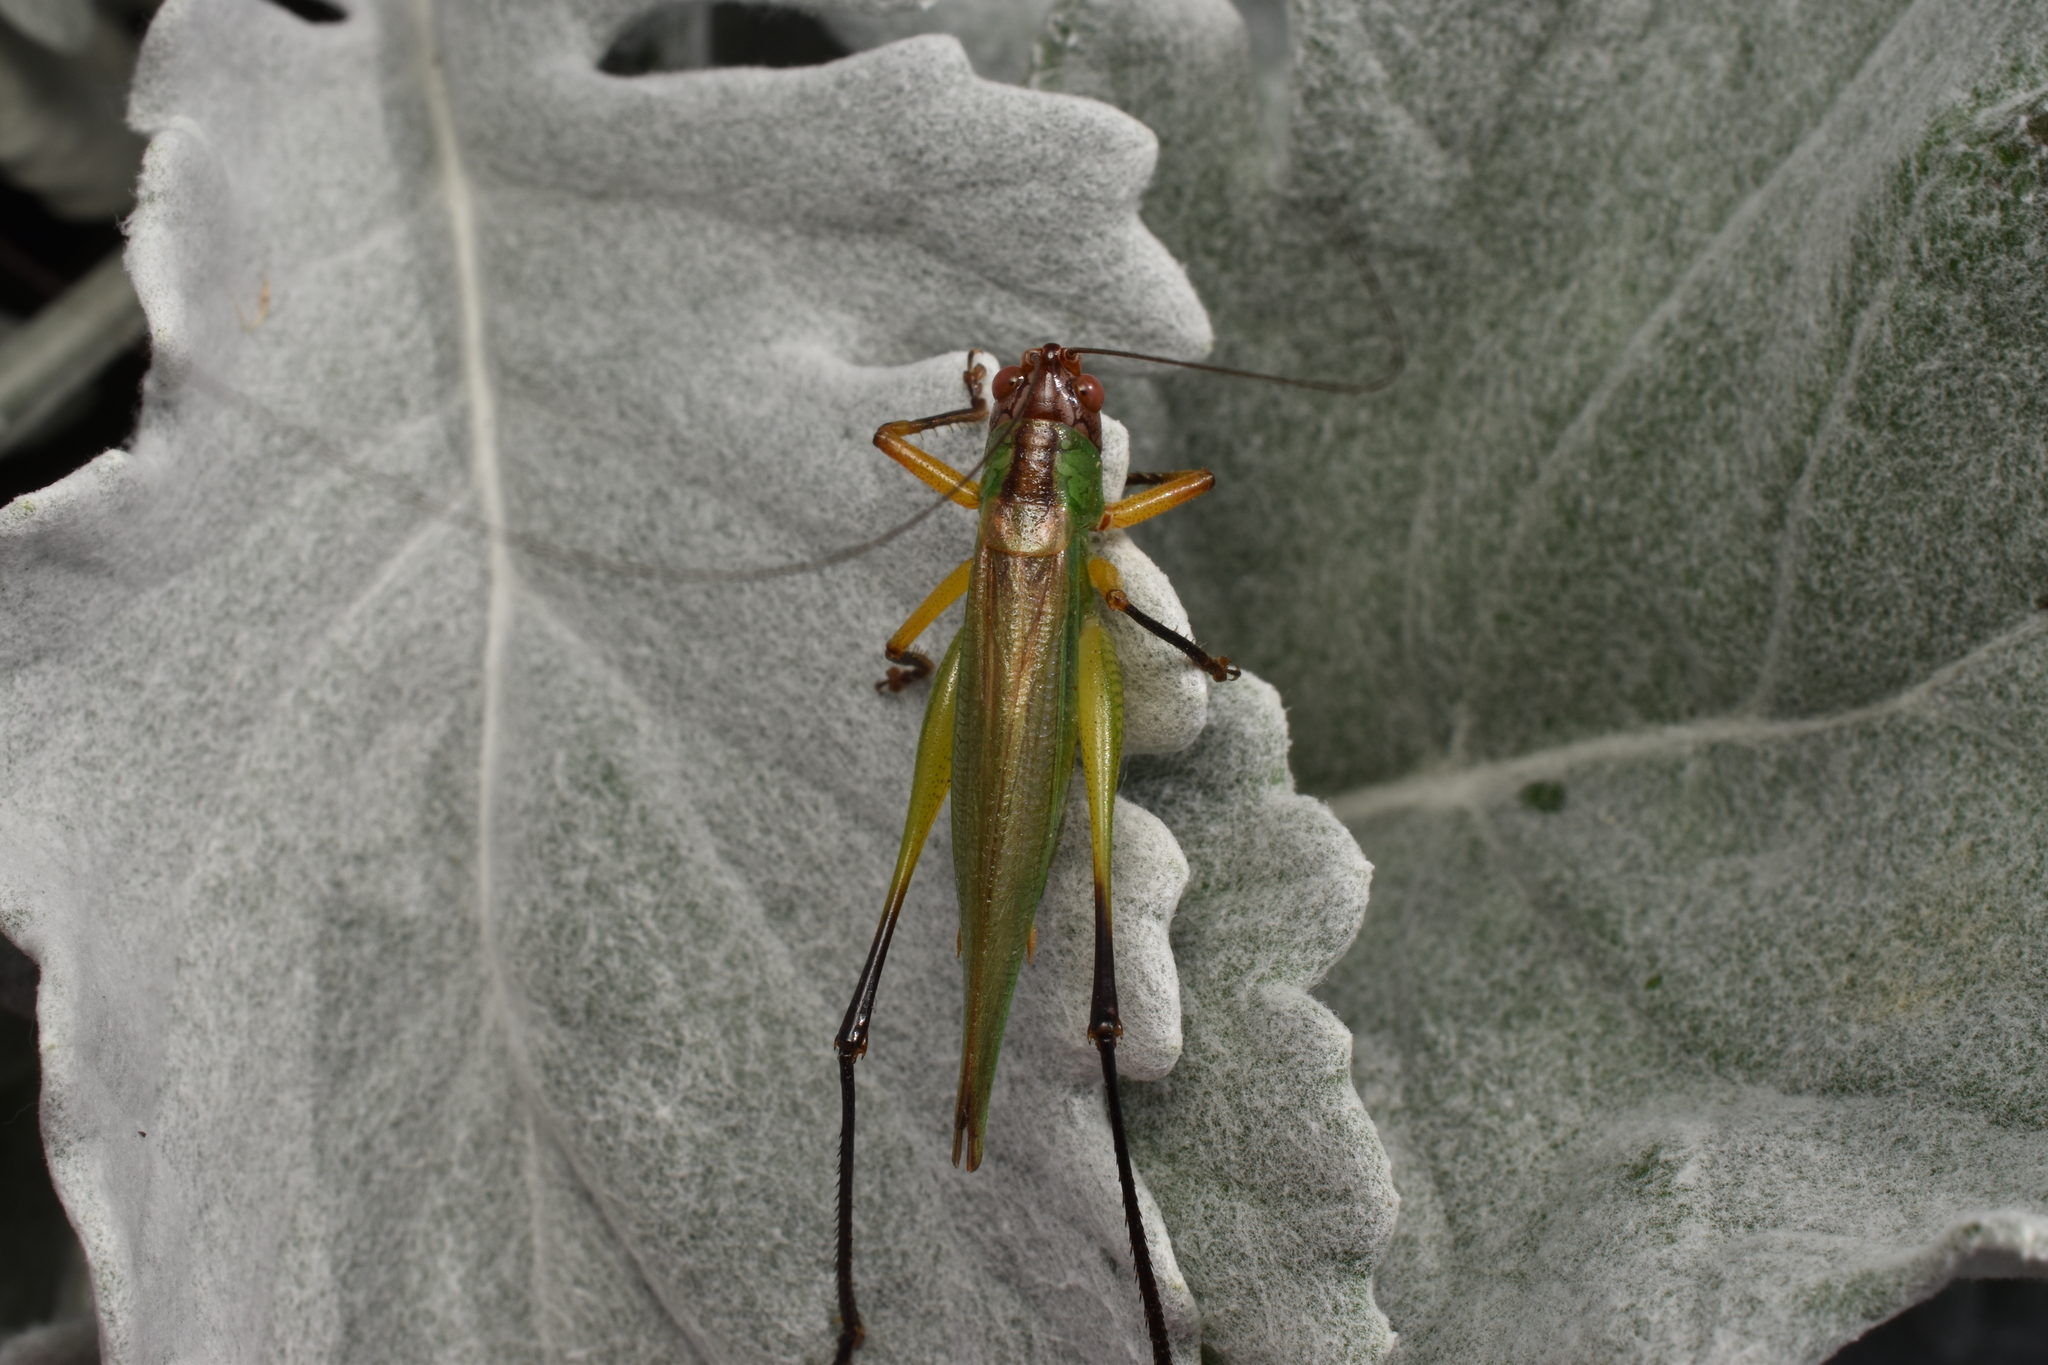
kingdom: Animalia
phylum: Arthropoda
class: Insecta
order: Orthoptera
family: Tettigoniidae
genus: Orchelimum
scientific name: Orchelimum nigripes
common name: Black-legged meadow katydid
